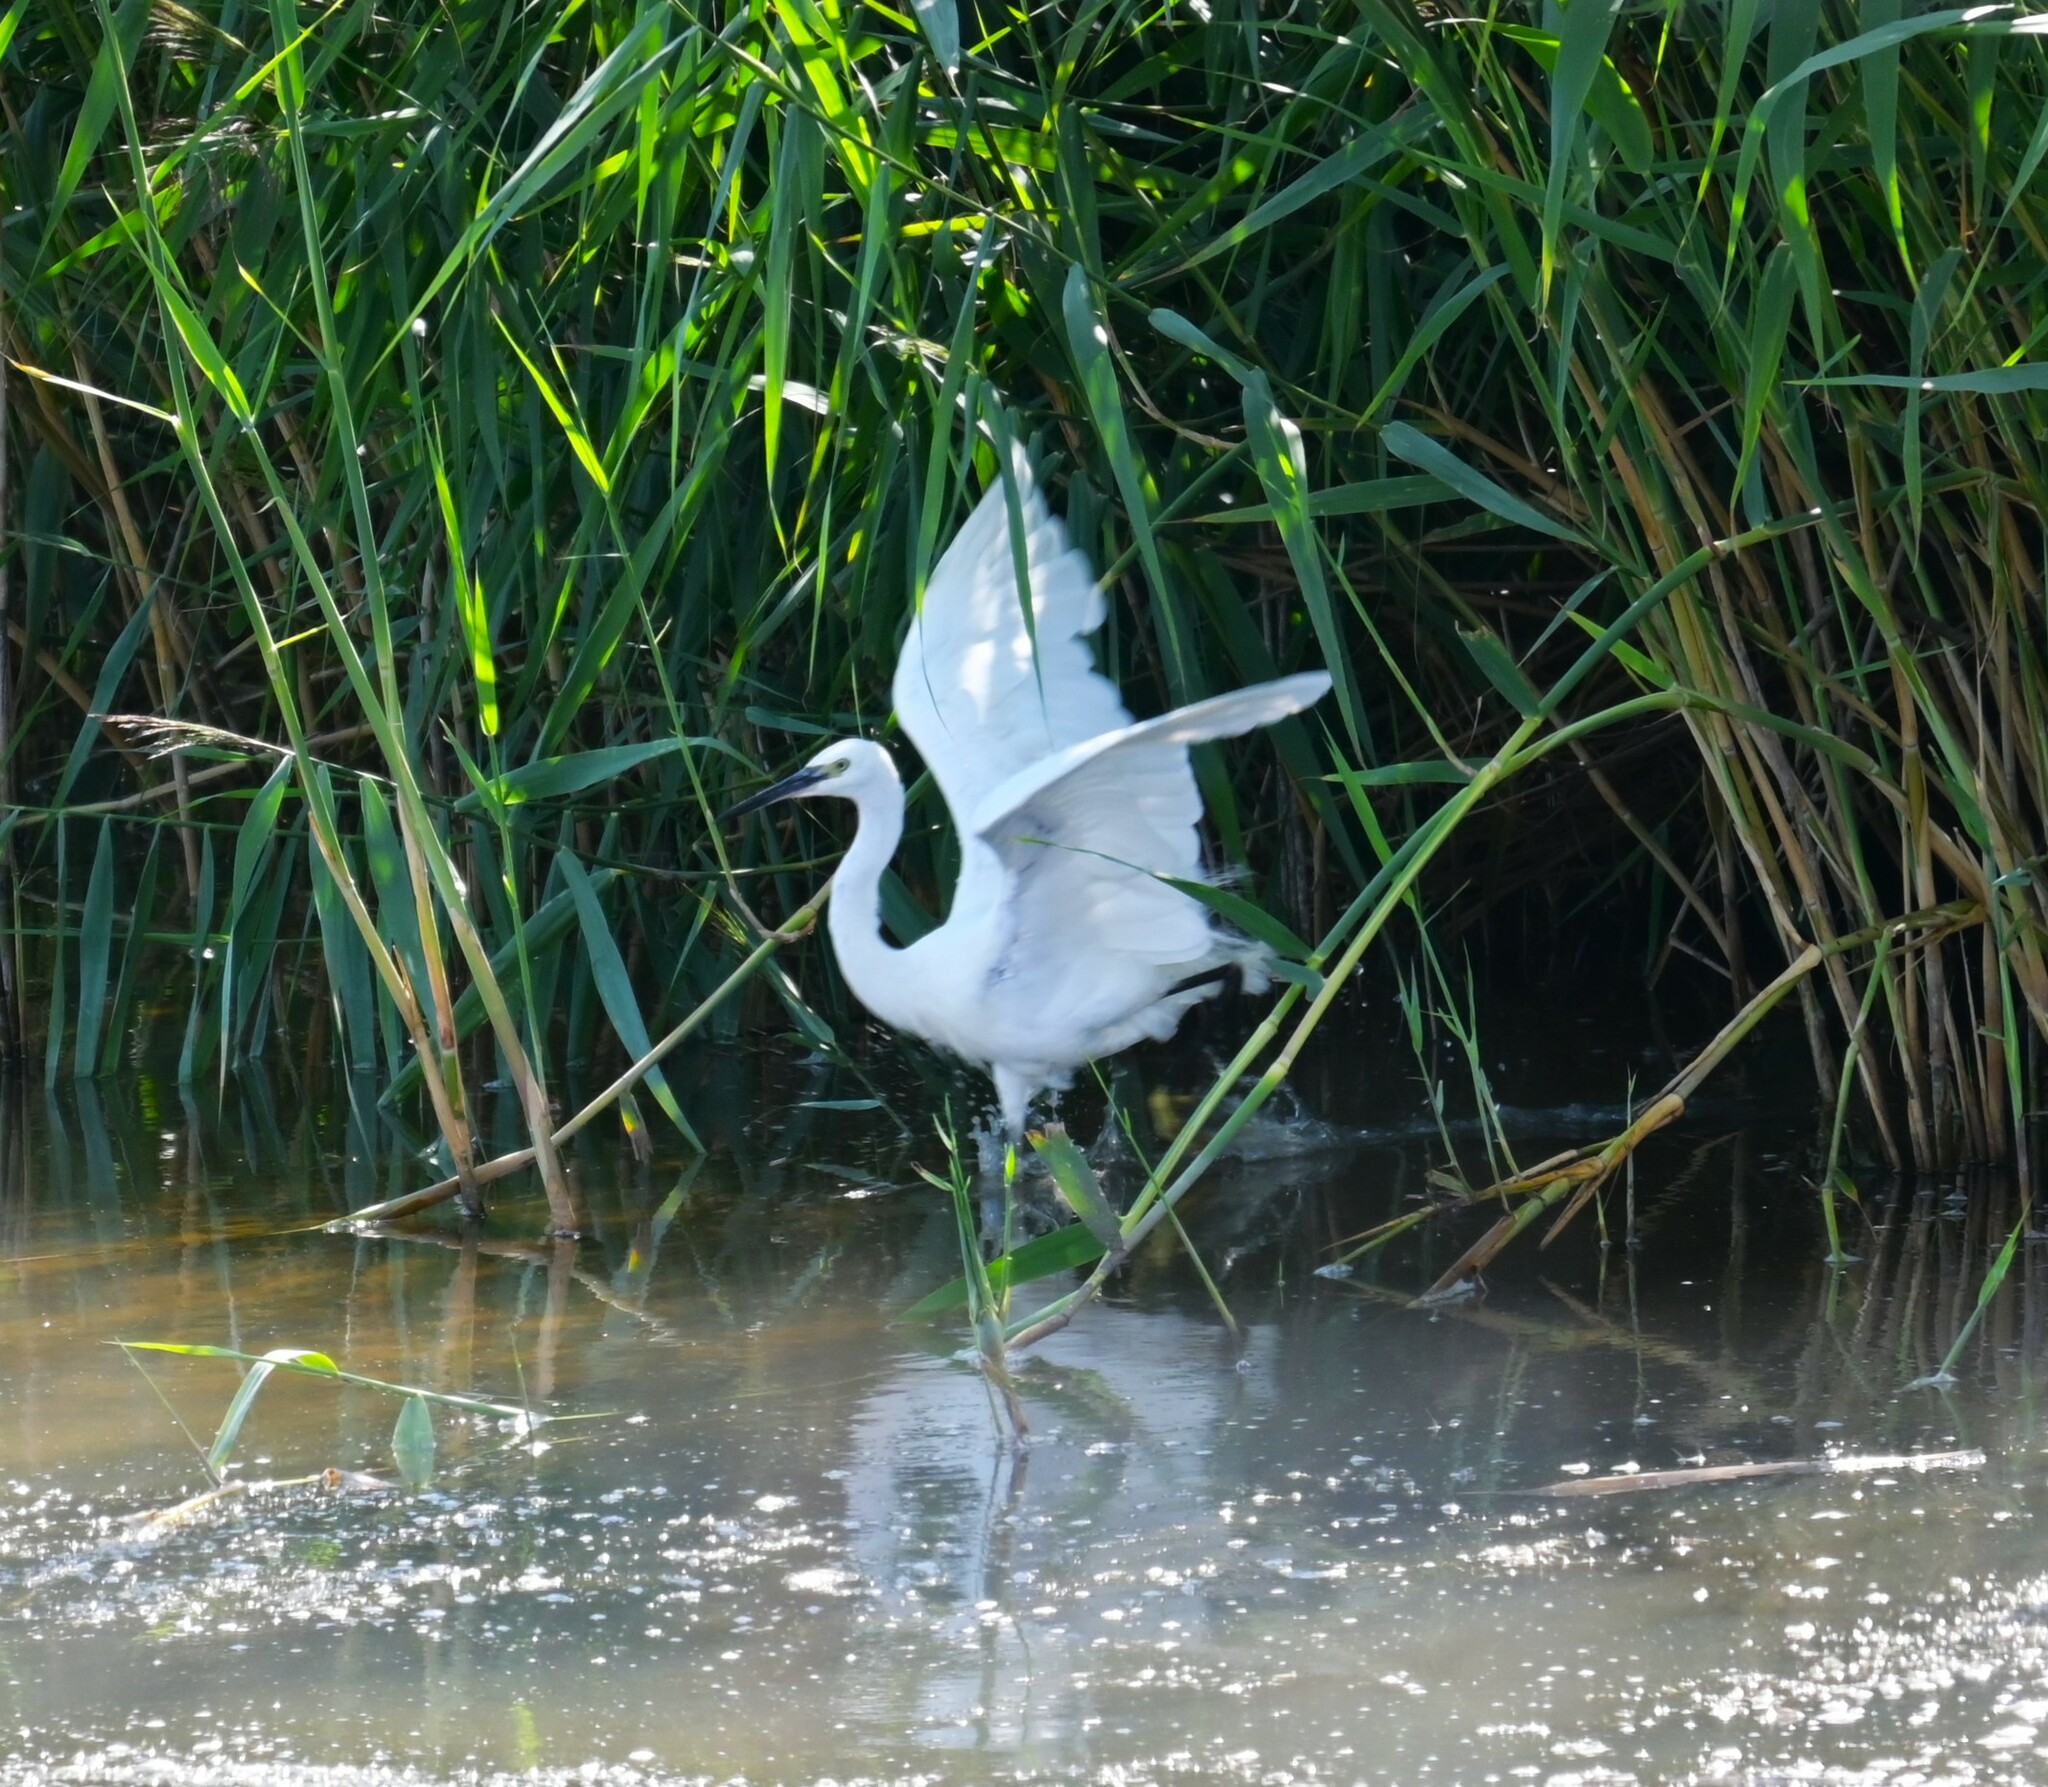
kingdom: Animalia
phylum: Chordata
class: Aves
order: Pelecaniformes
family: Ardeidae
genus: Egretta
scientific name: Egretta garzetta
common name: Little egret
